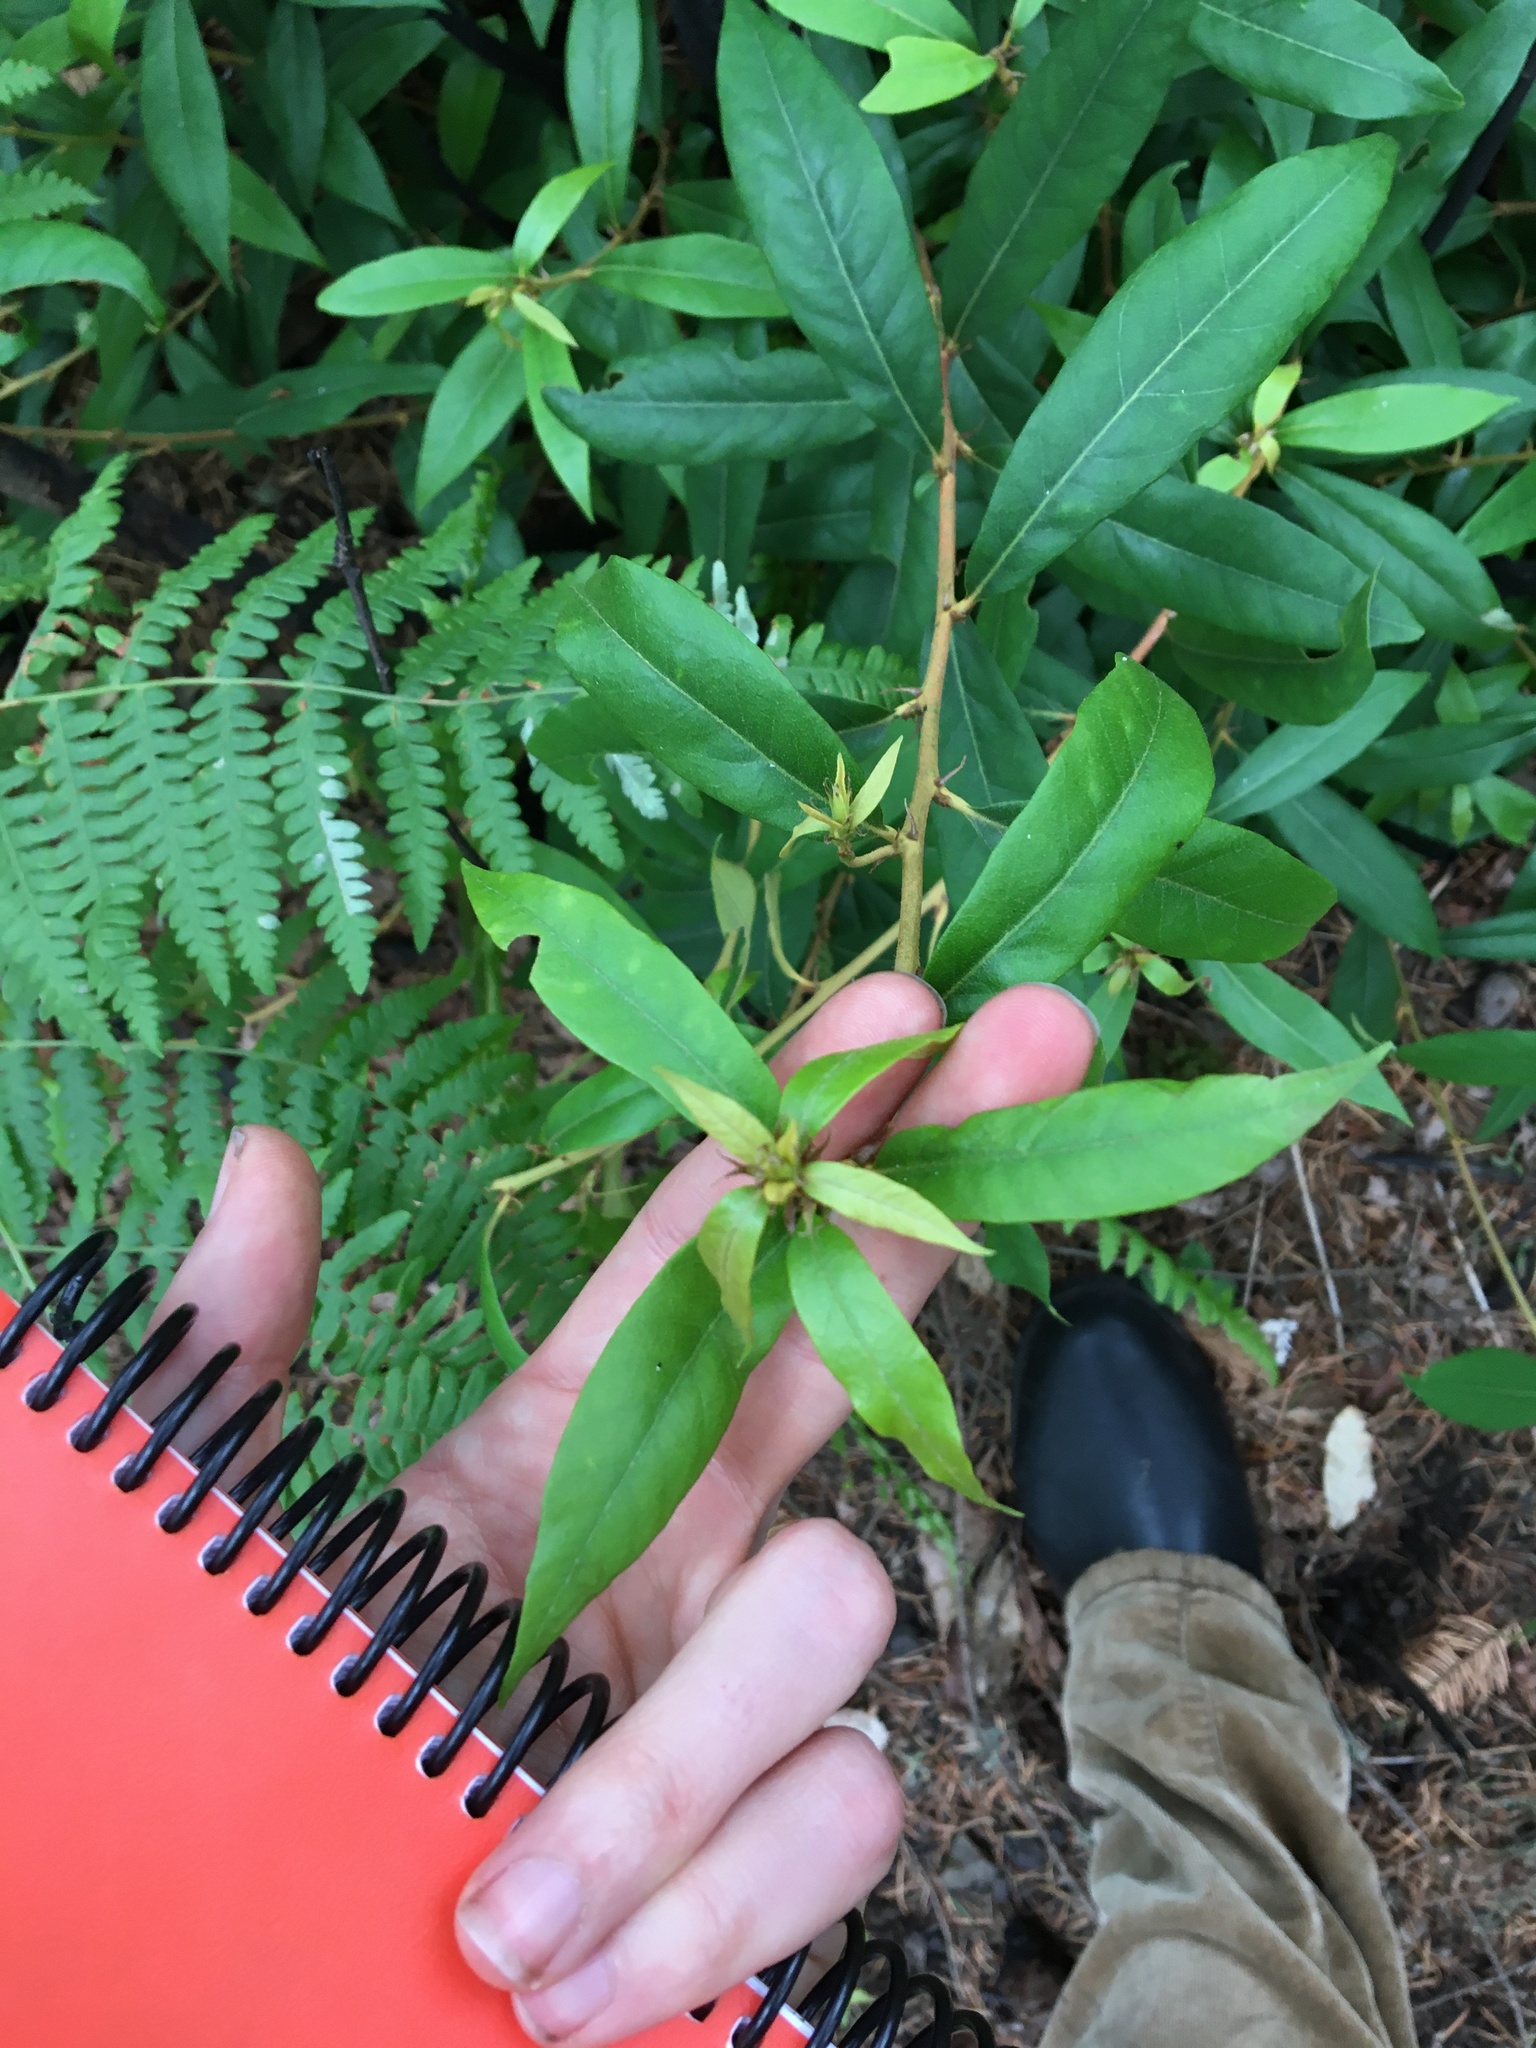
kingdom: Plantae
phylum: Tracheophyta
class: Magnoliopsida
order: Fagales
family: Fagaceae
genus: Chrysolepis
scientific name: Chrysolepis chrysophylla
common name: Giant chinquapin
